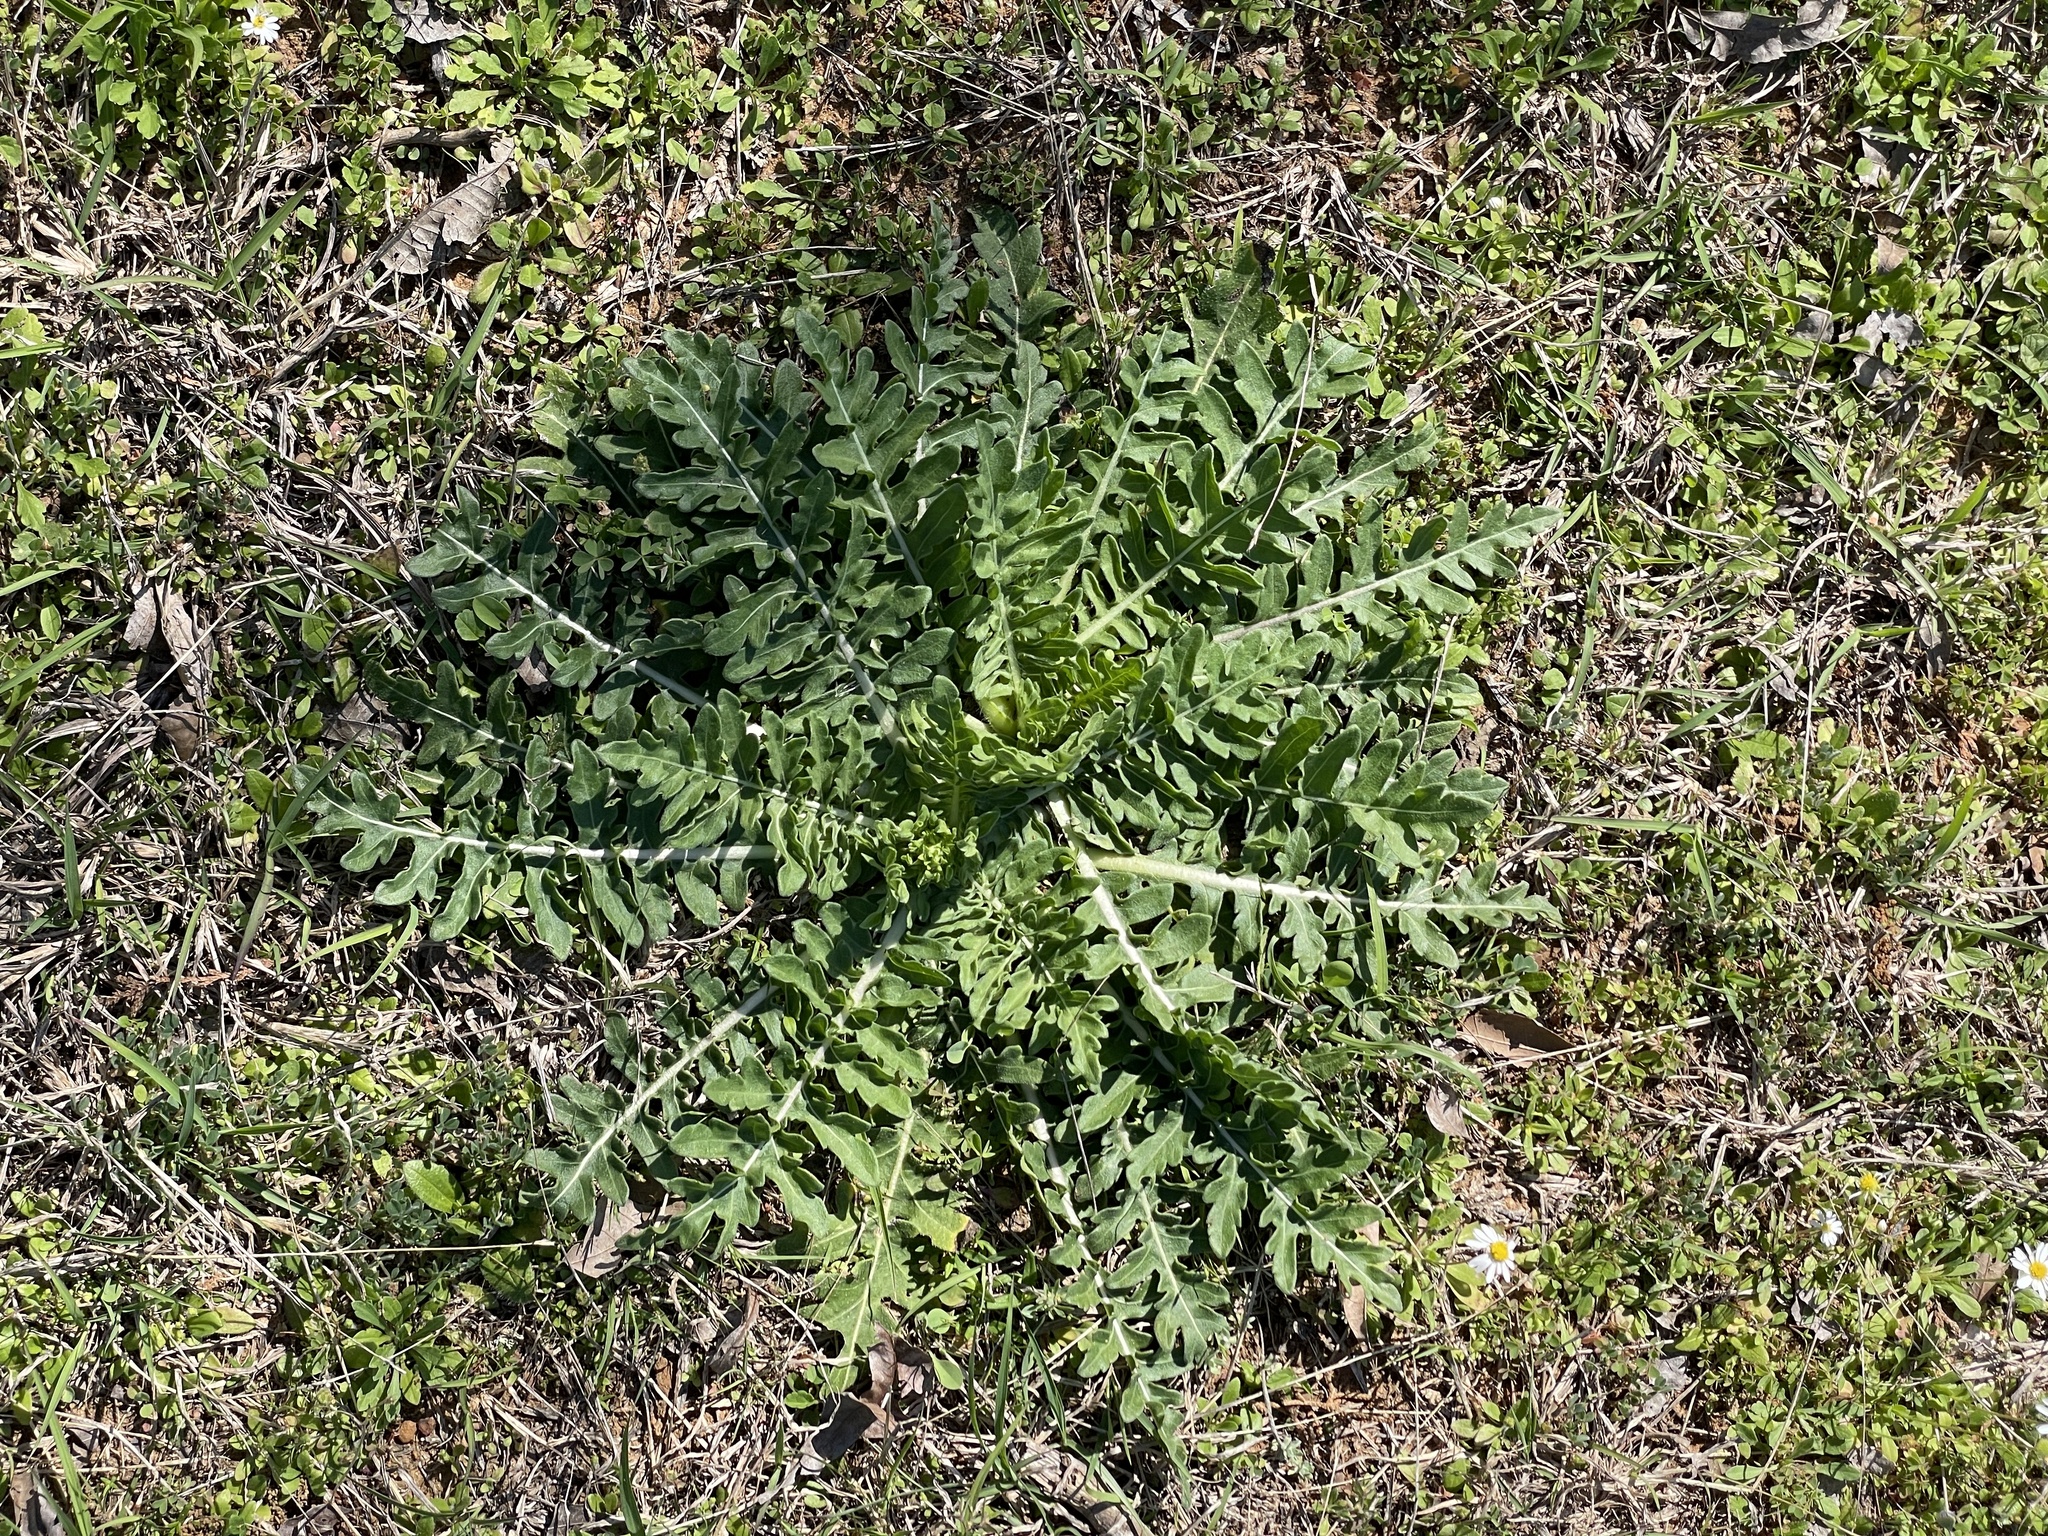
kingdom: Plantae
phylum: Tracheophyta
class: Magnoliopsida
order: Asterales
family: Asteraceae
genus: Engelmannia
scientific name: Engelmannia peristenia
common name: Engelmann's daisy
